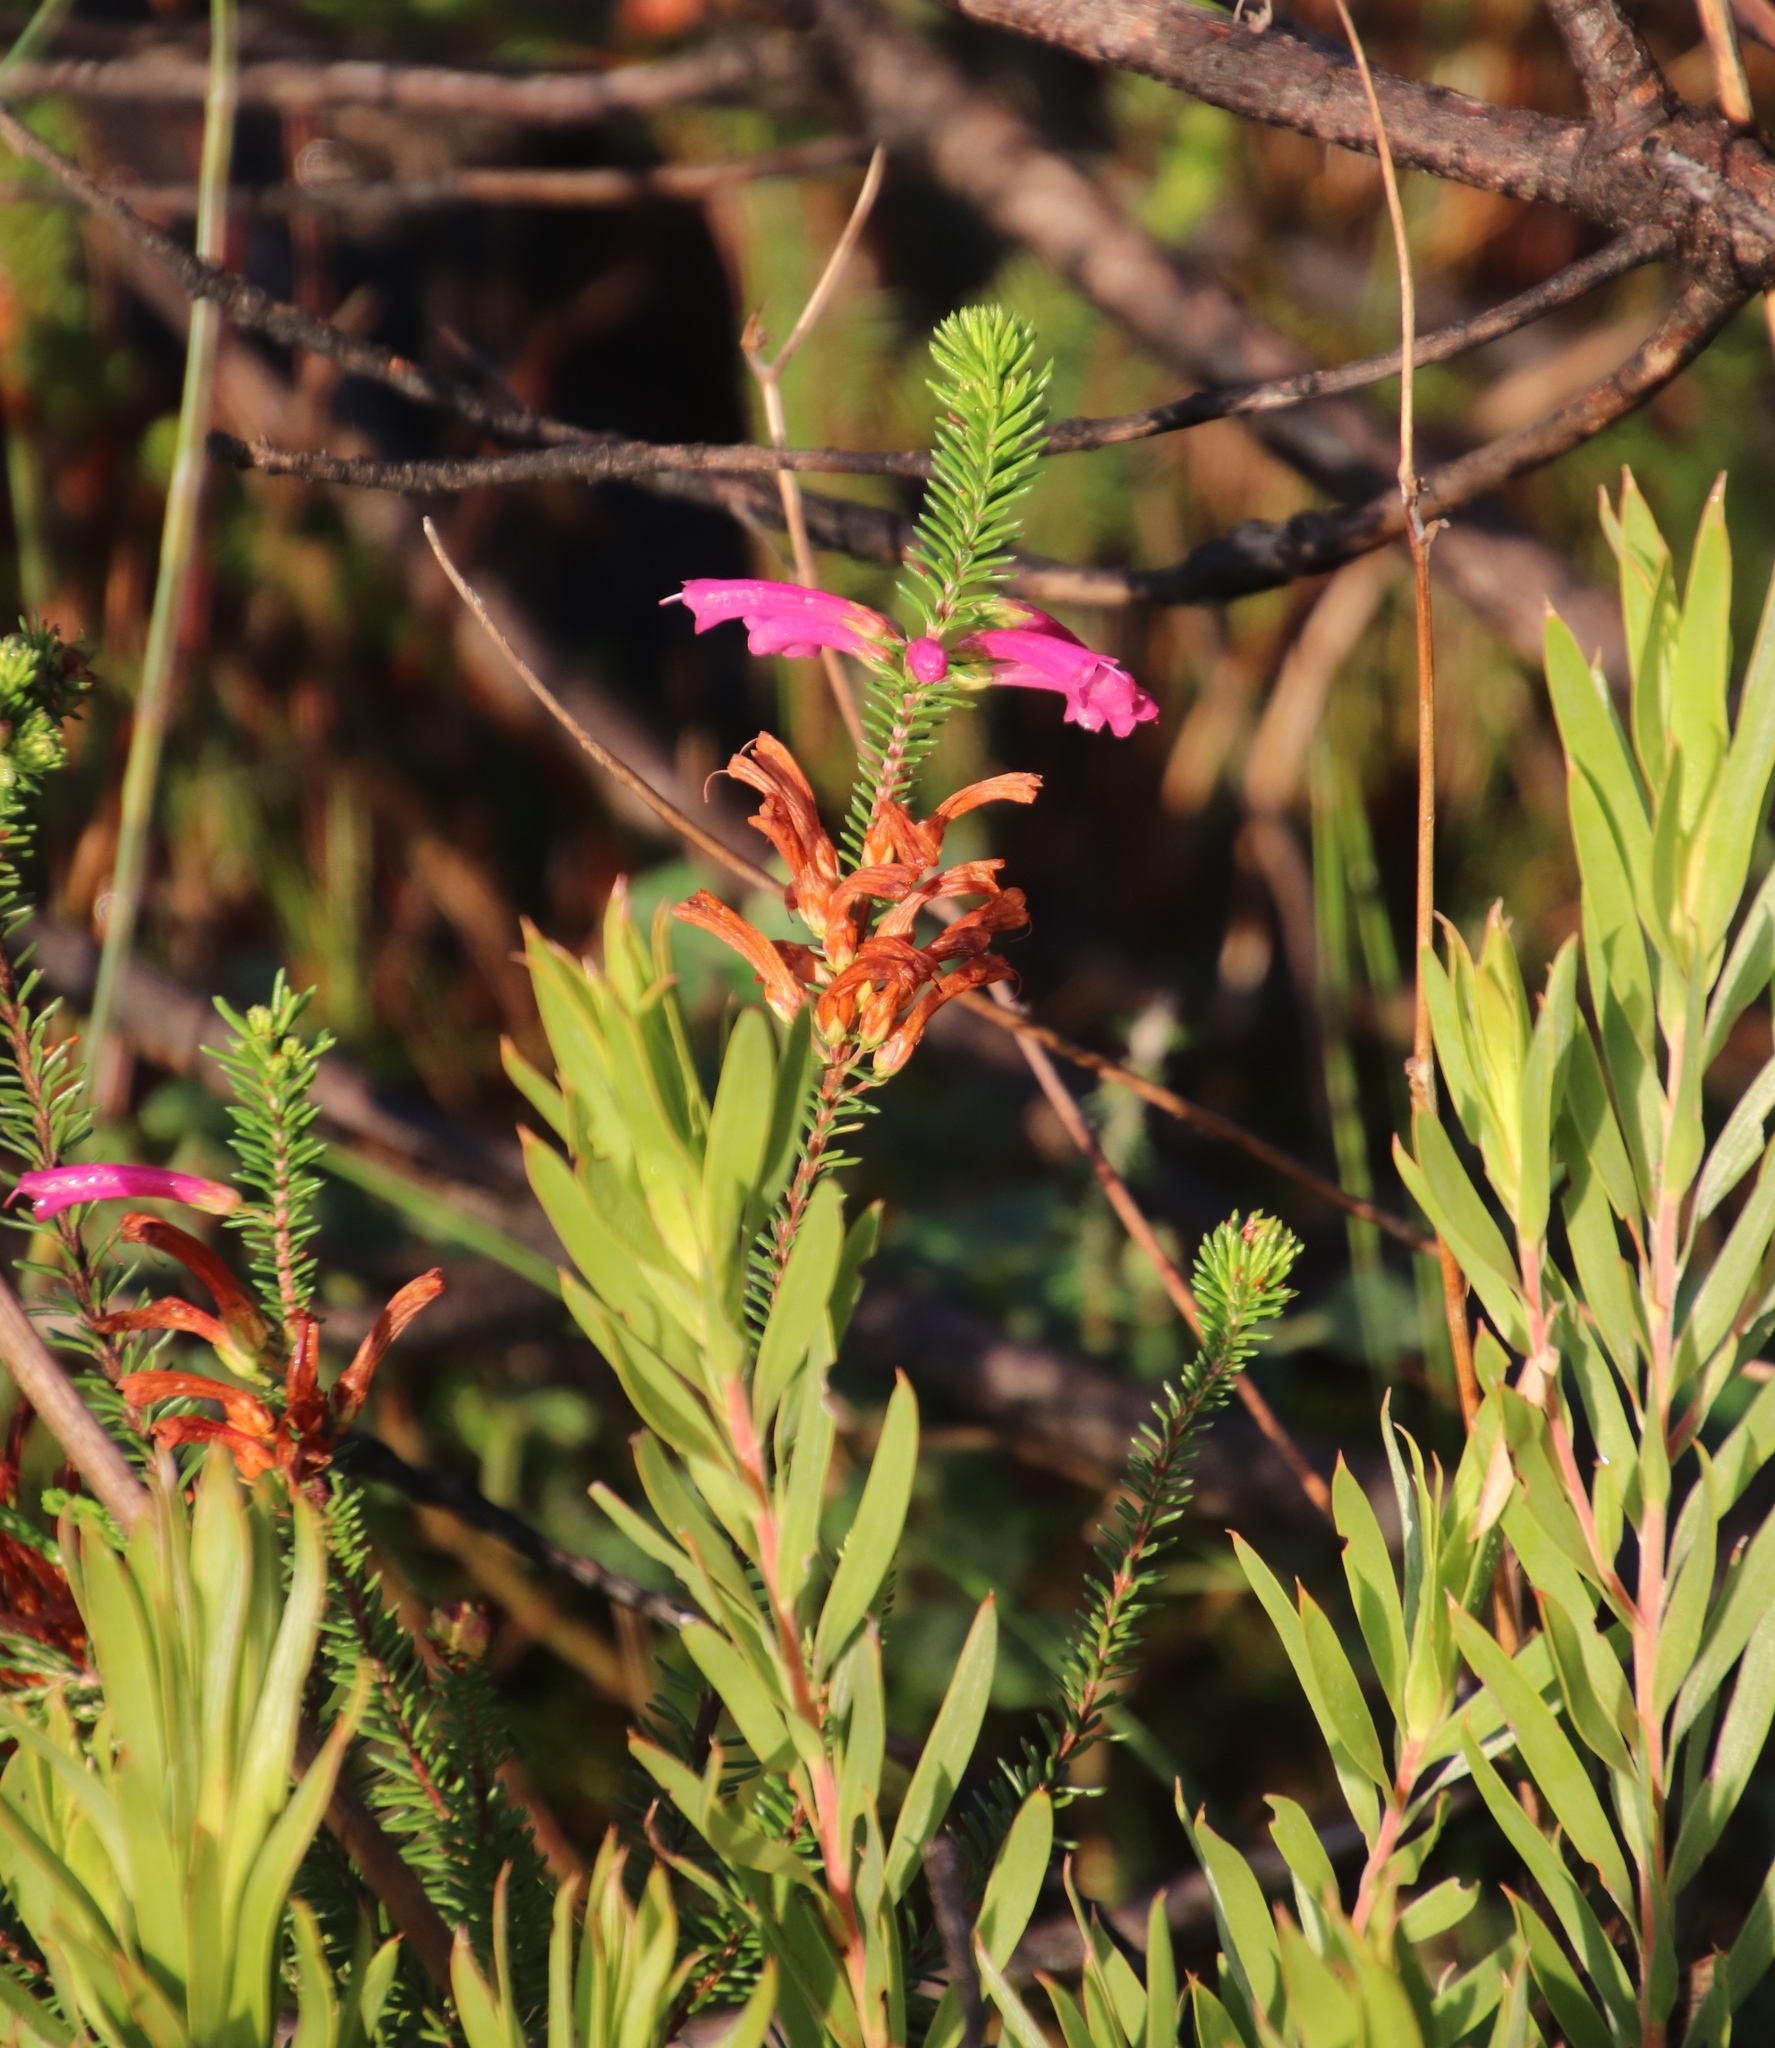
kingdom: Plantae
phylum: Tracheophyta
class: Magnoliopsida
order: Ericales
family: Ericaceae
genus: Erica
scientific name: Erica abietina
